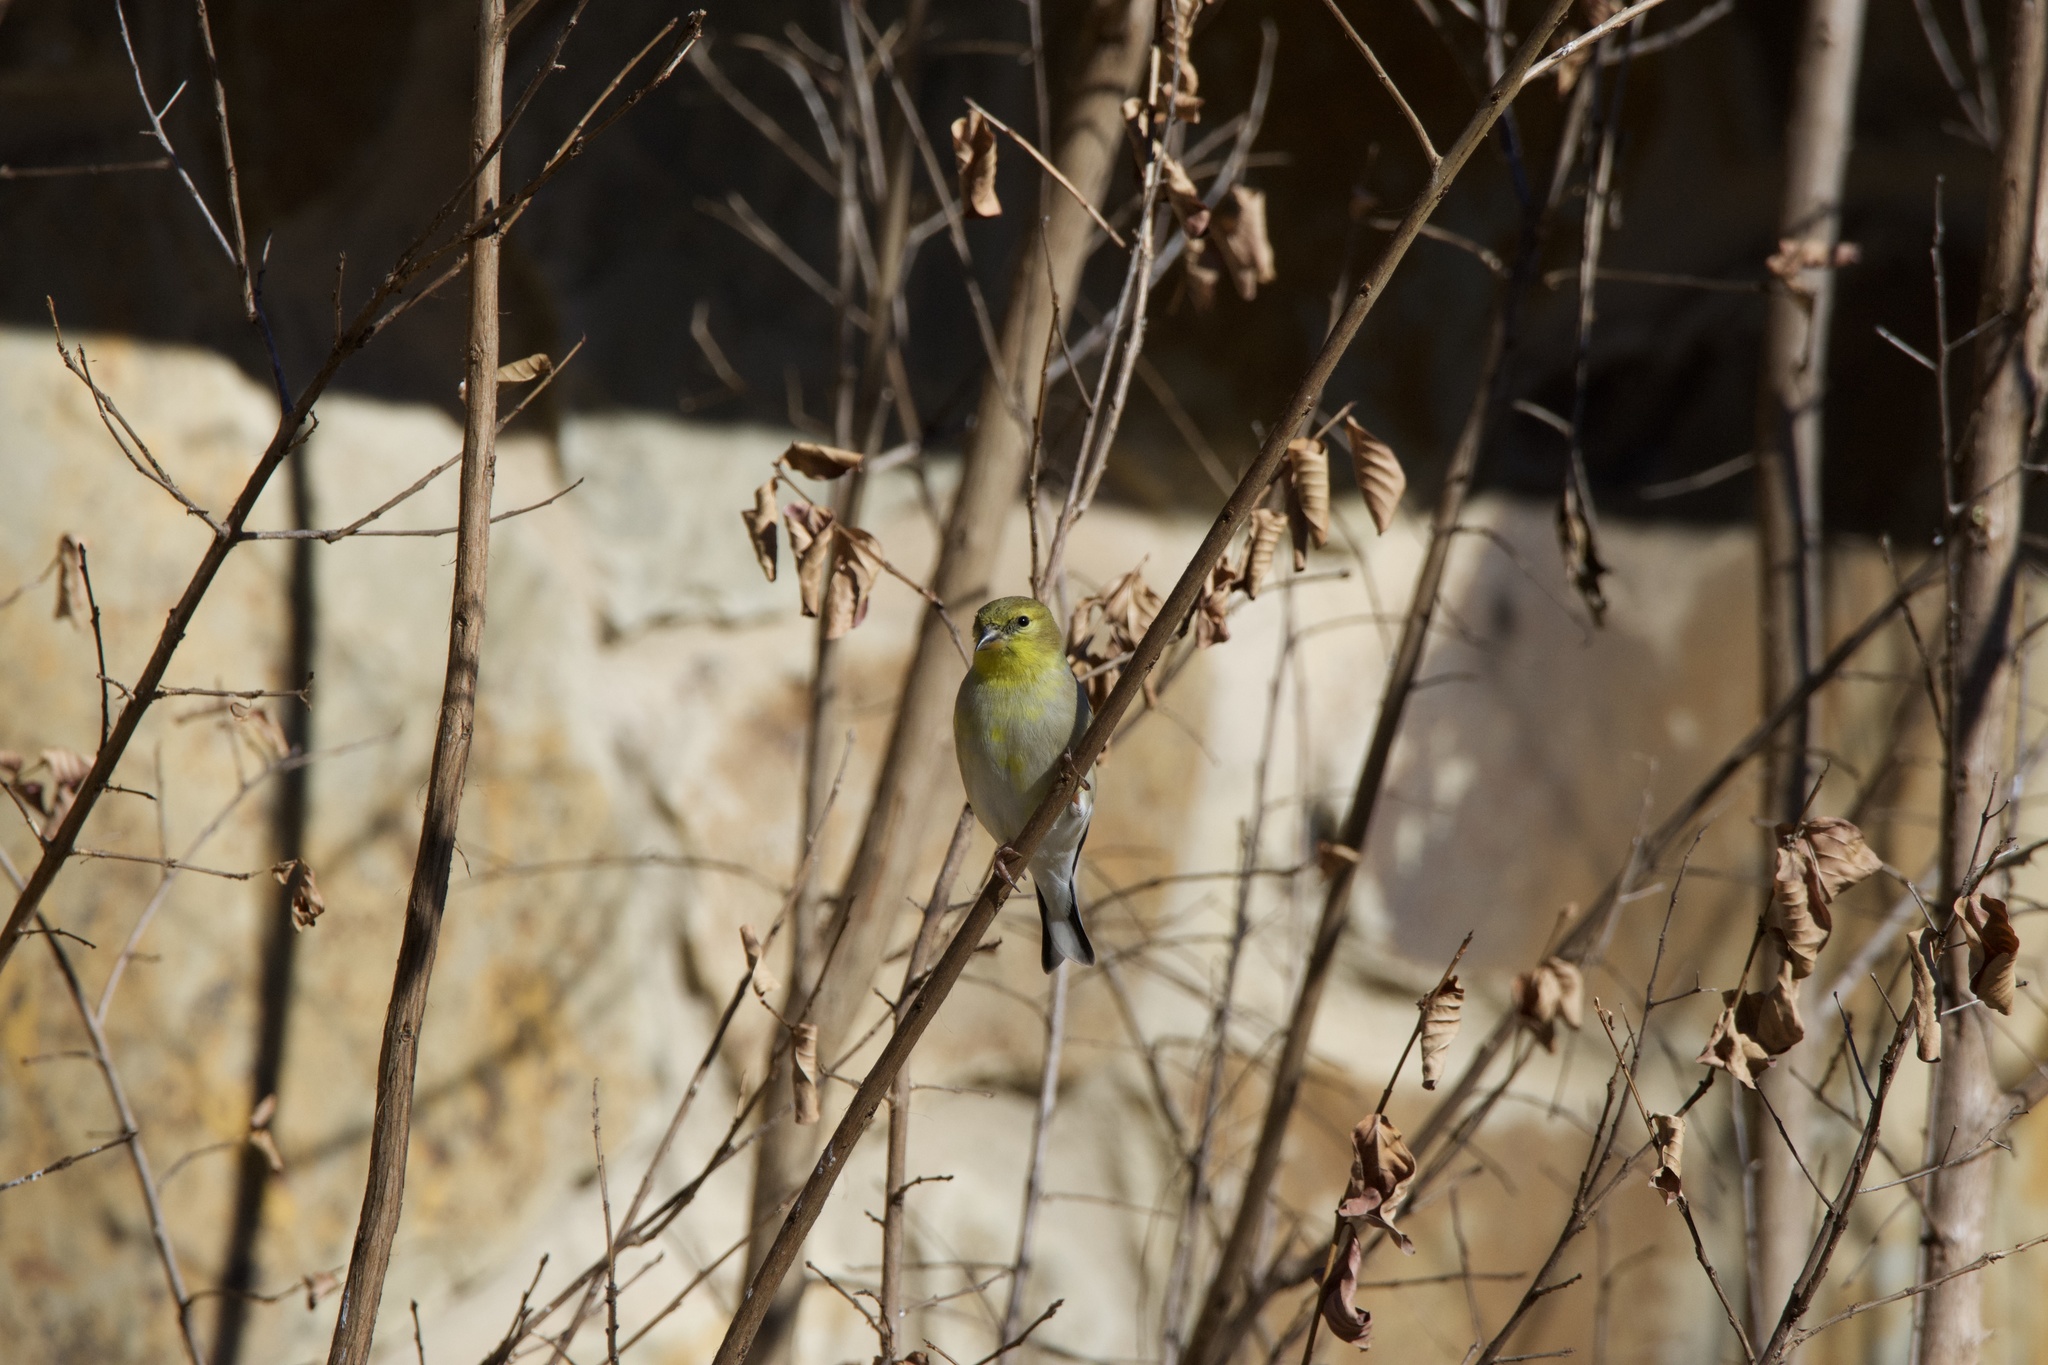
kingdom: Animalia
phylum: Chordata
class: Aves
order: Passeriformes
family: Fringillidae
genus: Spinus
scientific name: Spinus tristis
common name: American goldfinch
